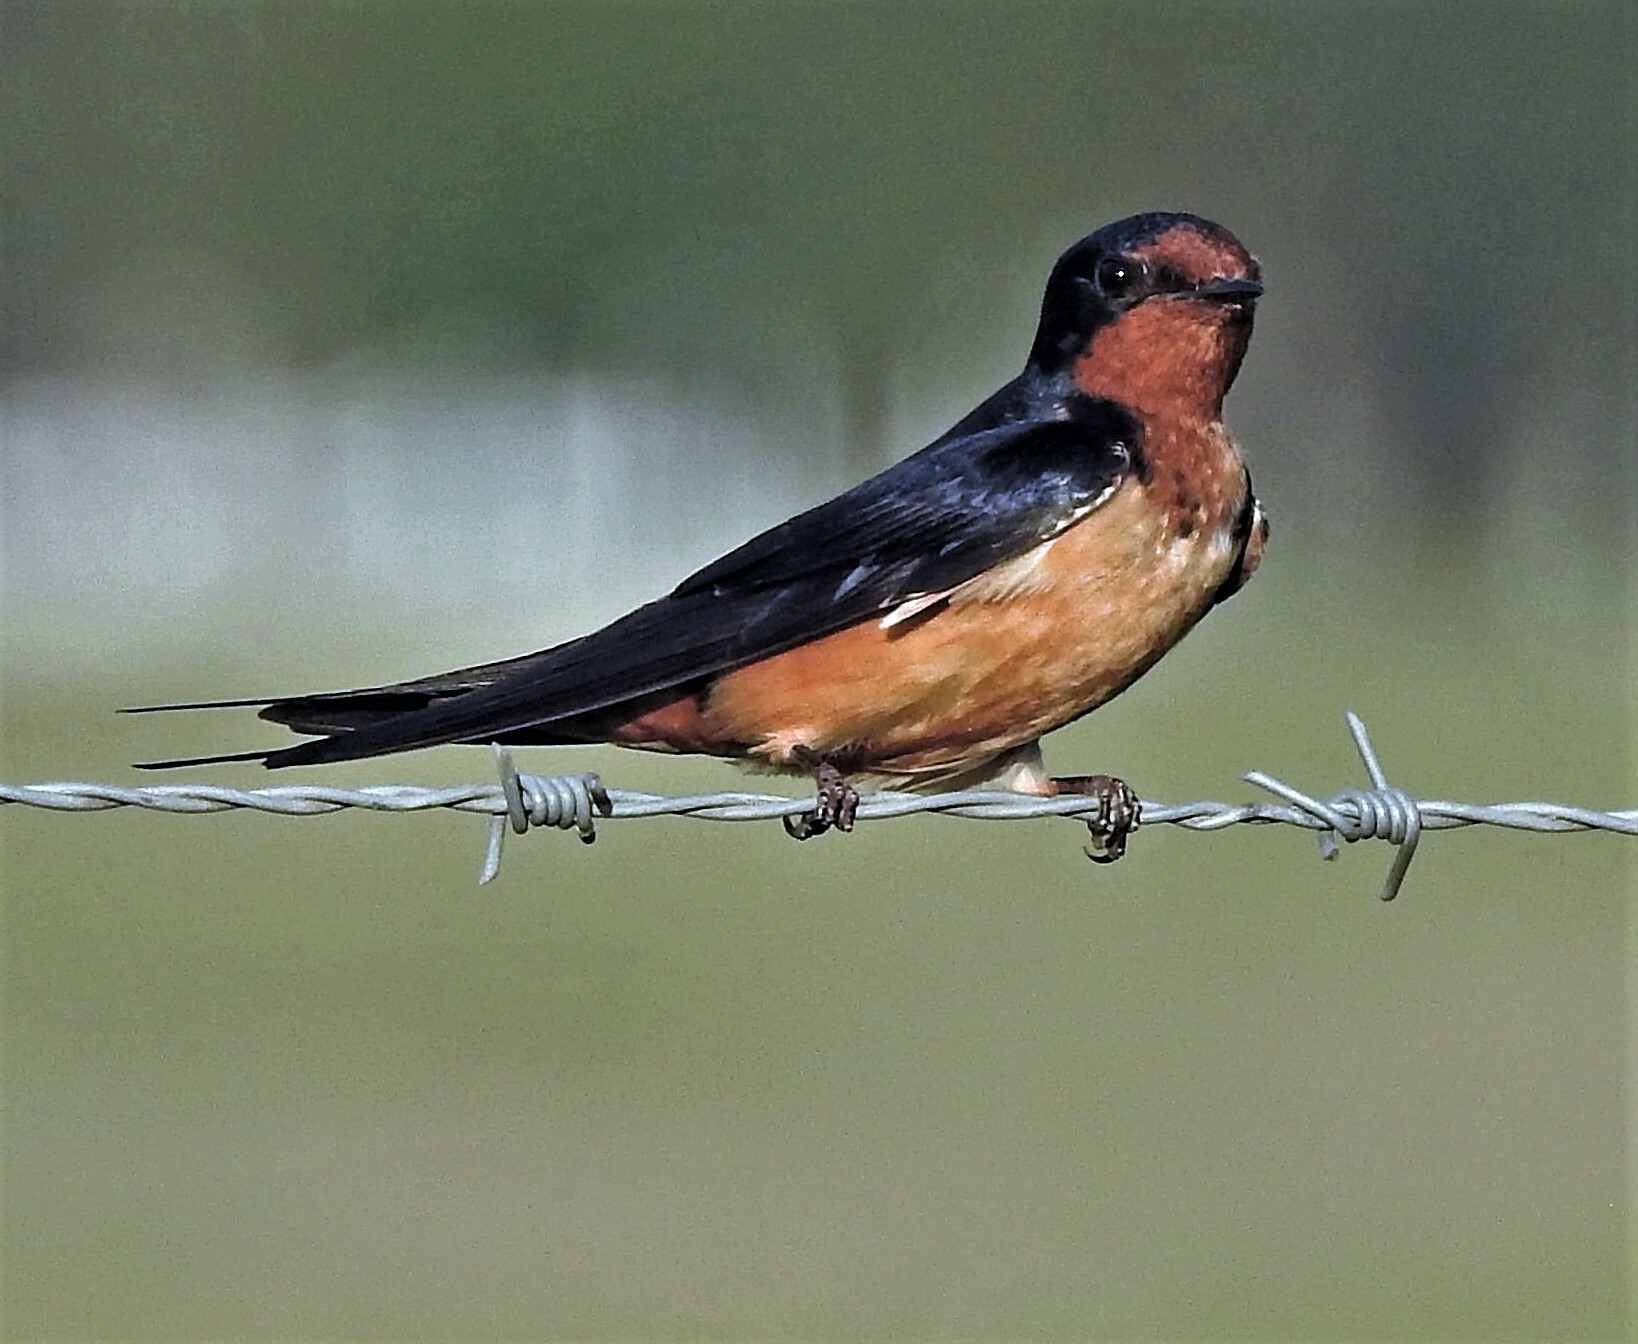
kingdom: Animalia
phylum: Chordata
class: Aves
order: Passeriformes
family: Hirundinidae
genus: Hirundo
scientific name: Hirundo rustica
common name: Barn swallow
